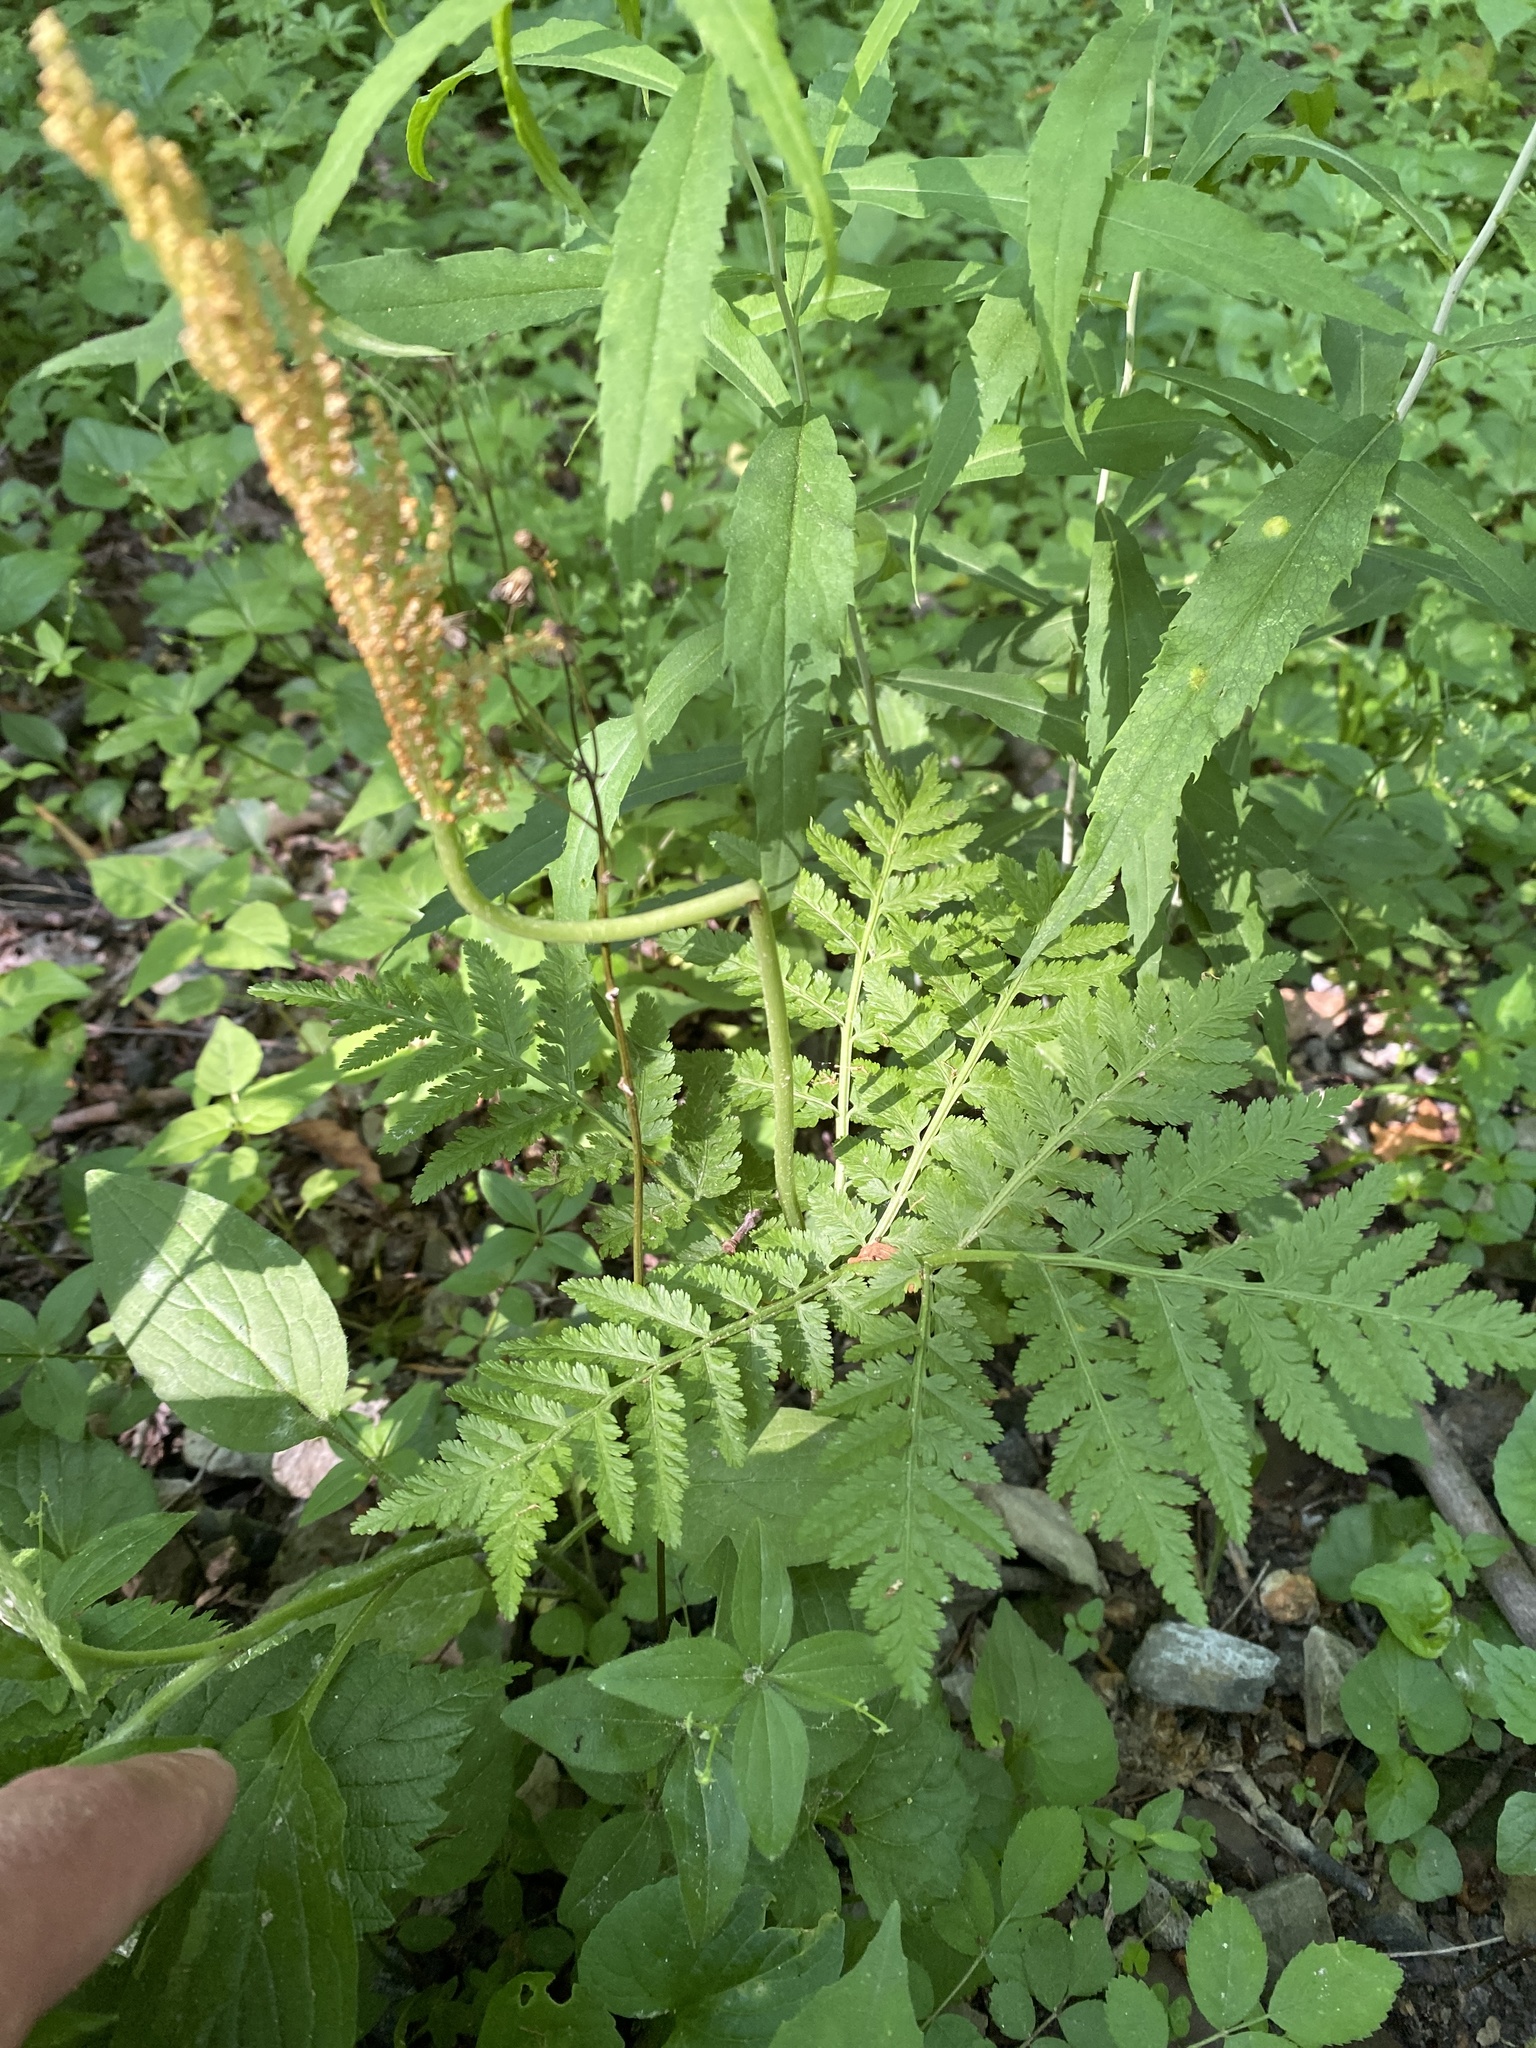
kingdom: Plantae
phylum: Tracheophyta
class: Polypodiopsida
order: Ophioglossales
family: Ophioglossaceae
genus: Botrypus
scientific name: Botrypus virginianus
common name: Common grapefern
